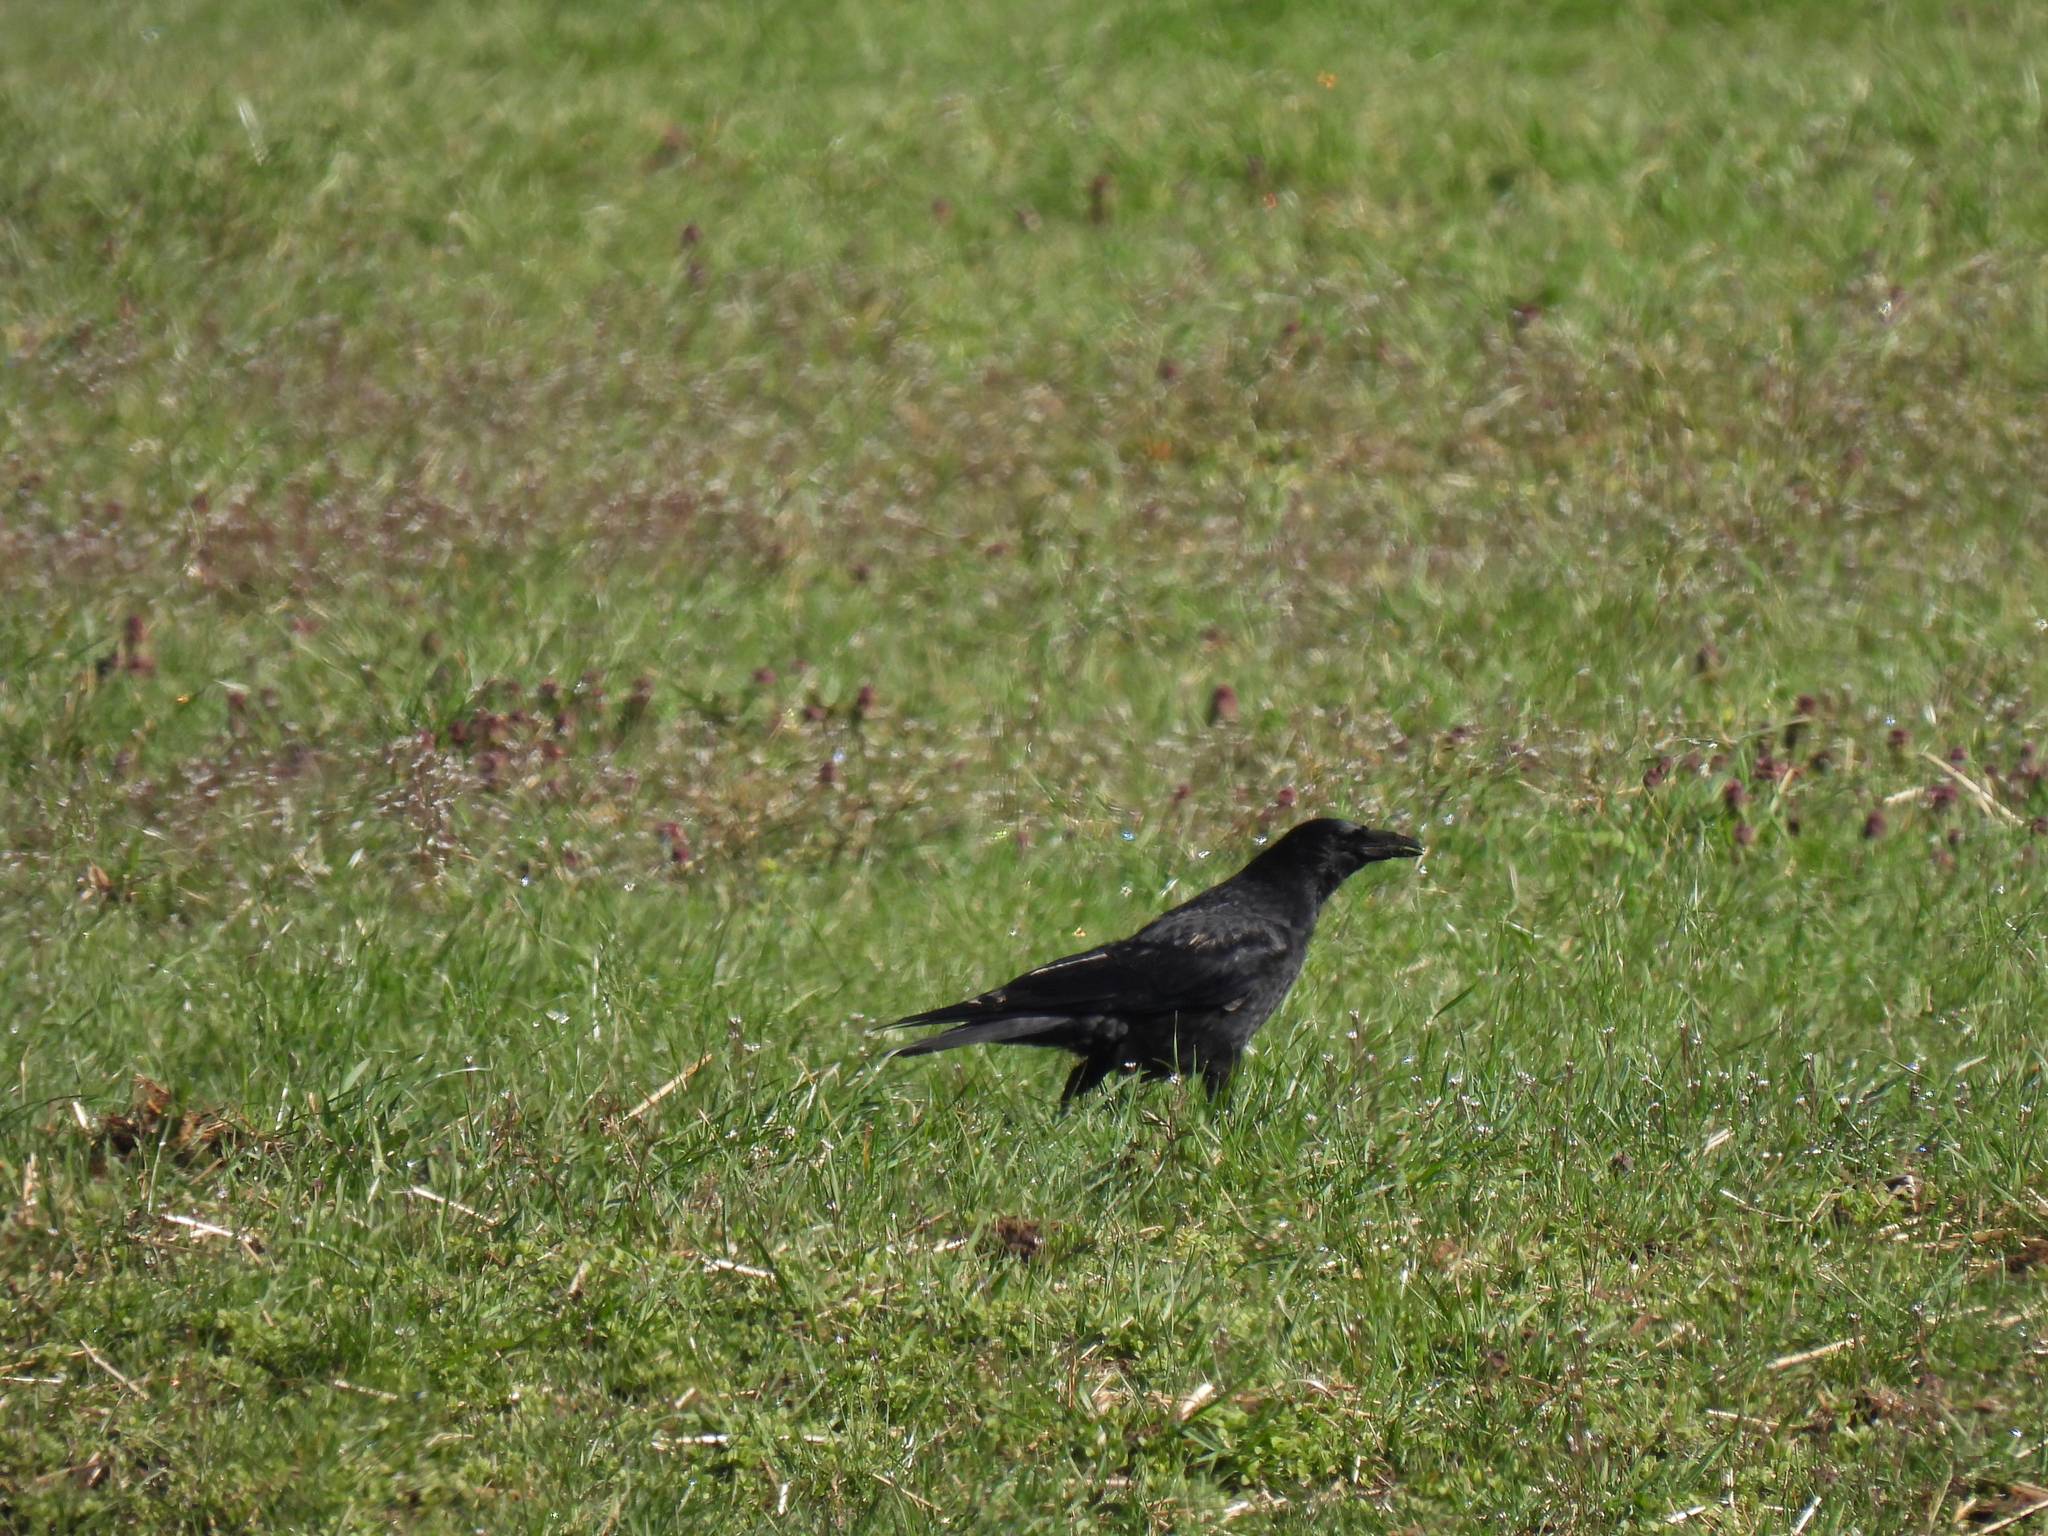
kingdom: Animalia
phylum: Chordata
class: Aves
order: Passeriformes
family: Corvidae
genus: Corvus
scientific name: Corvus corone
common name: Carrion crow
